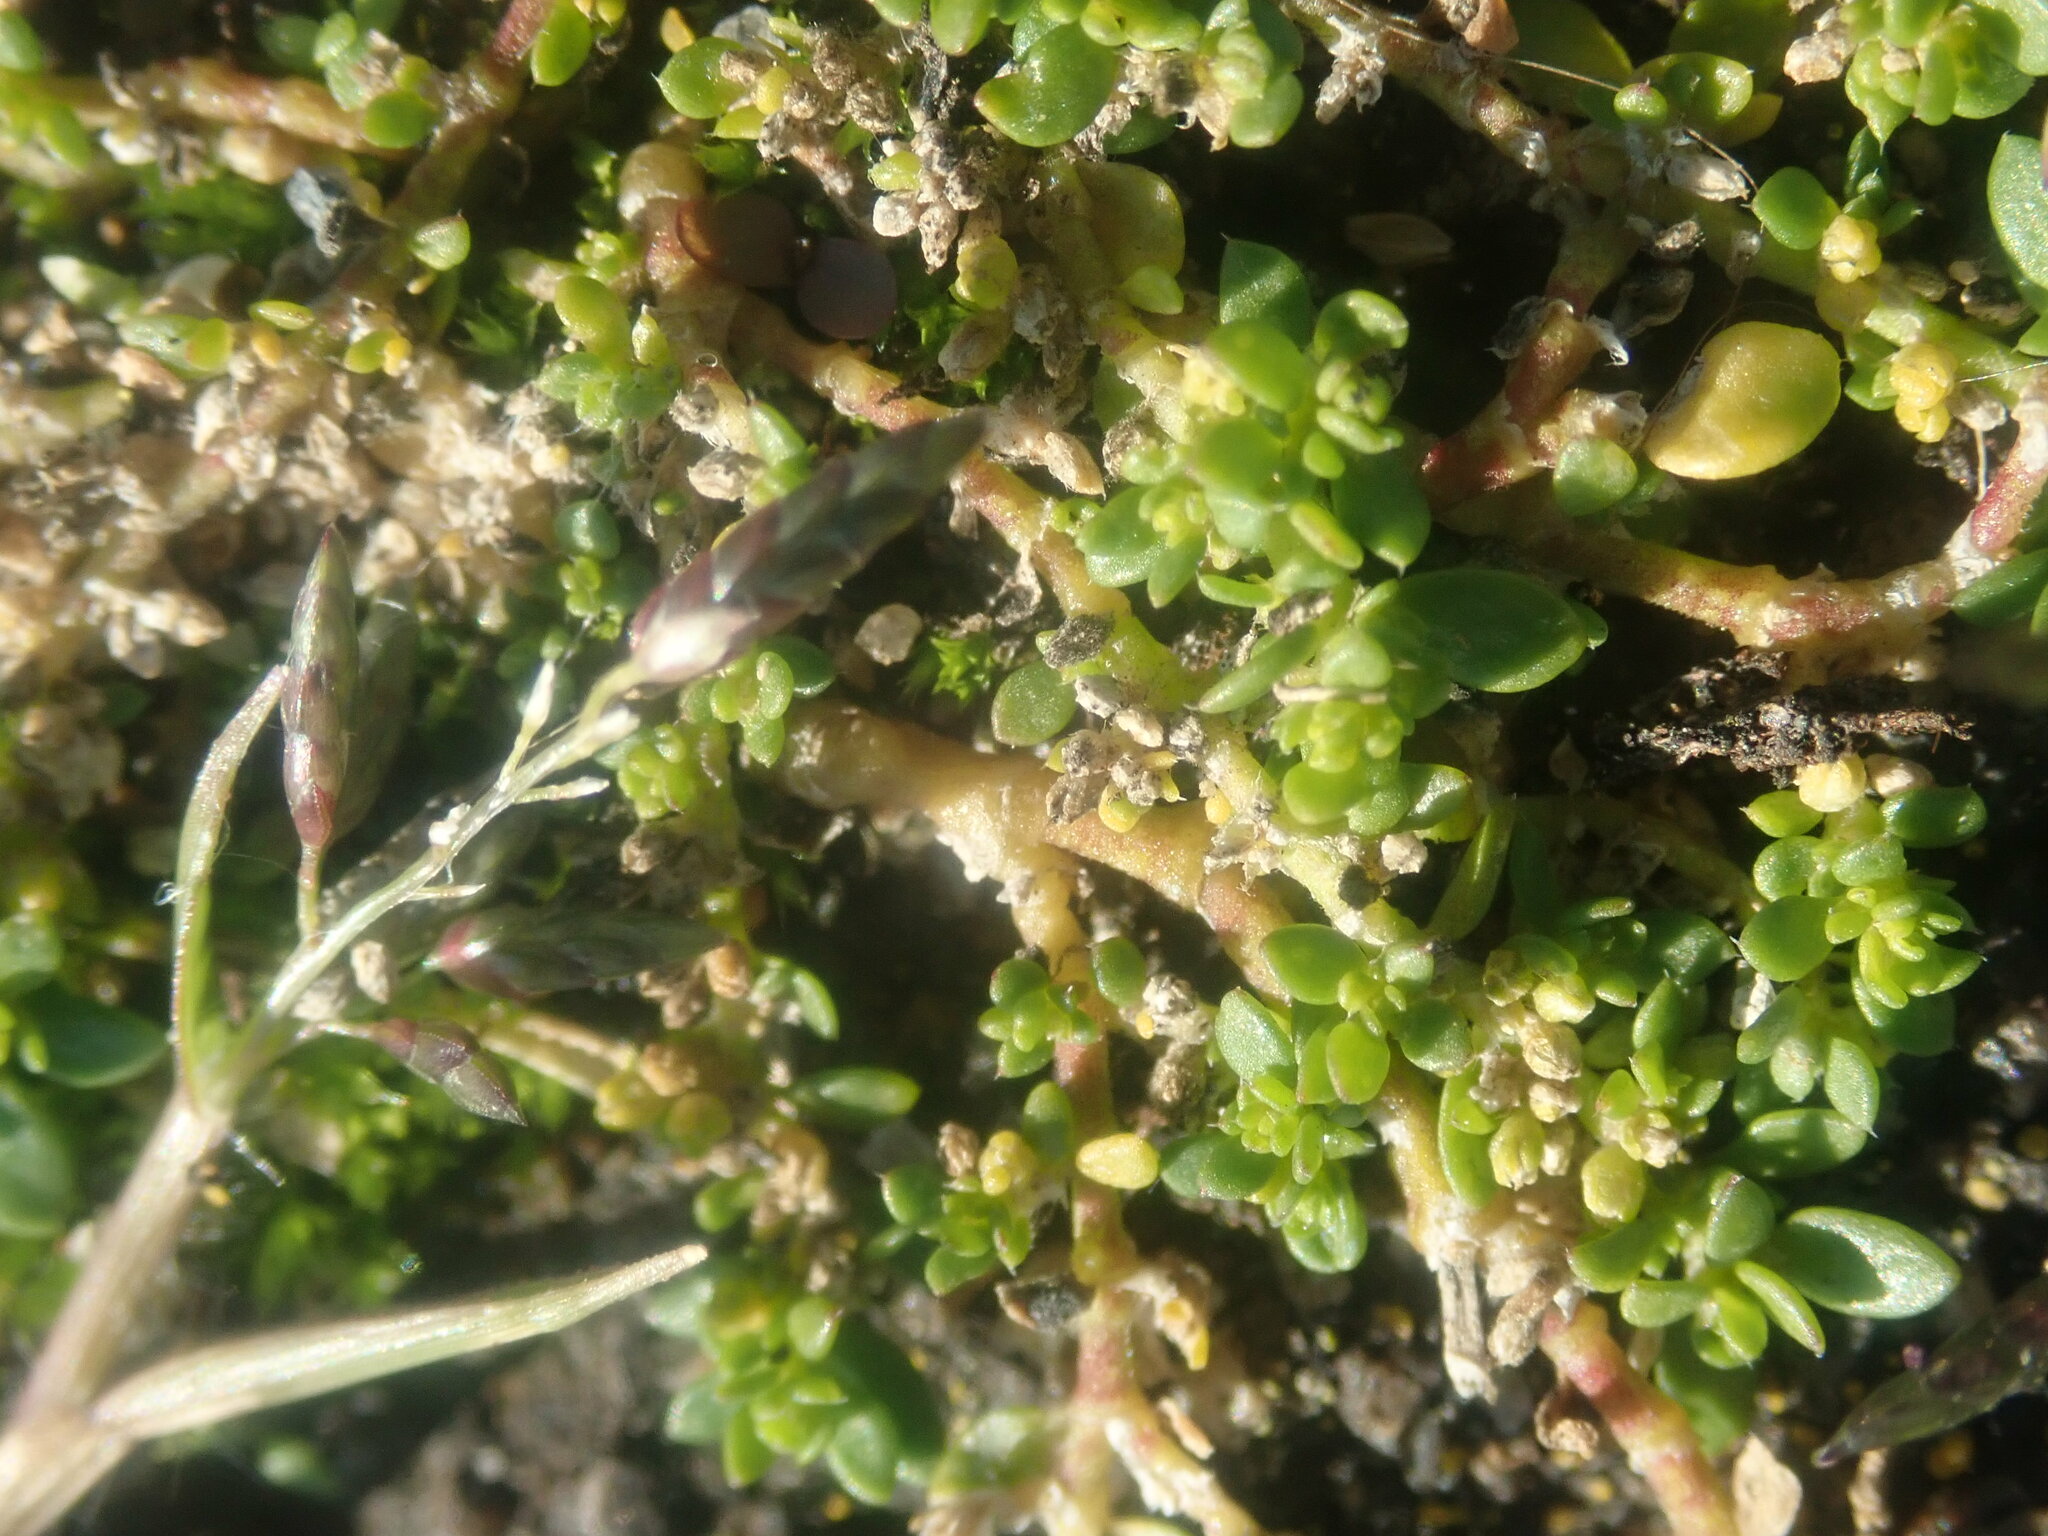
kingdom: Plantae
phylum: Tracheophyta
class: Magnoliopsida
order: Caryophyllales
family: Caryophyllaceae
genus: Herniaria
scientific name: Herniaria glabra
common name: Smooth rupturewort
